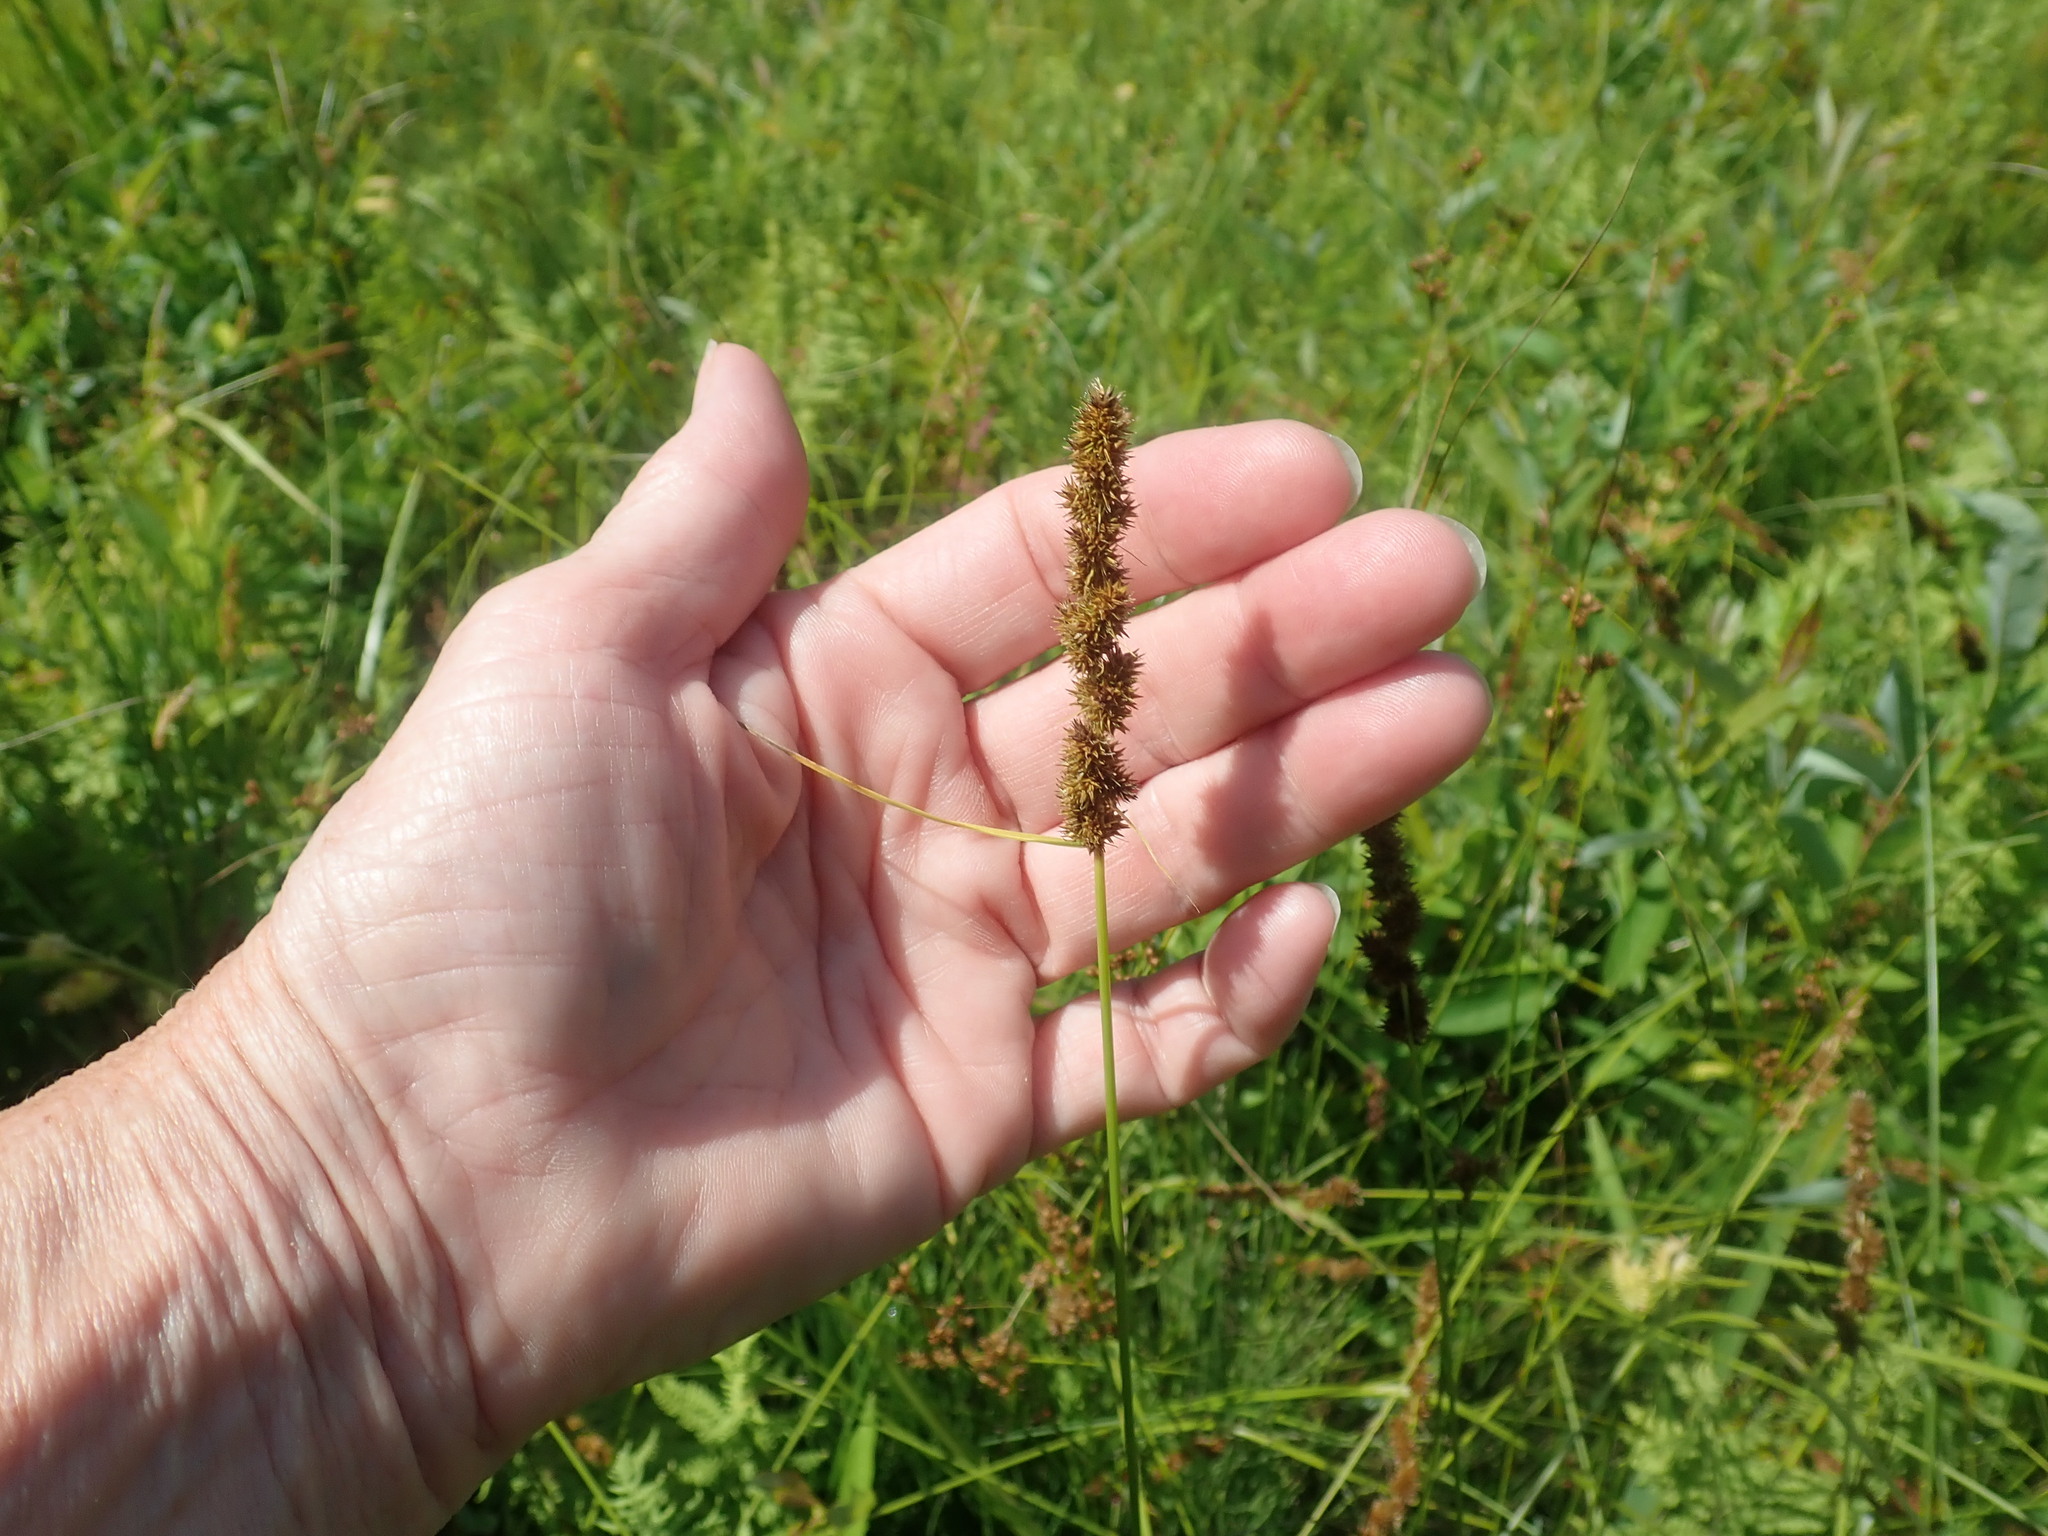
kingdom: Plantae
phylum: Tracheophyta
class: Liliopsida
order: Poales
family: Cyperaceae
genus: Carex
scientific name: Carex vulpinoidea
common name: American fox-sedge
